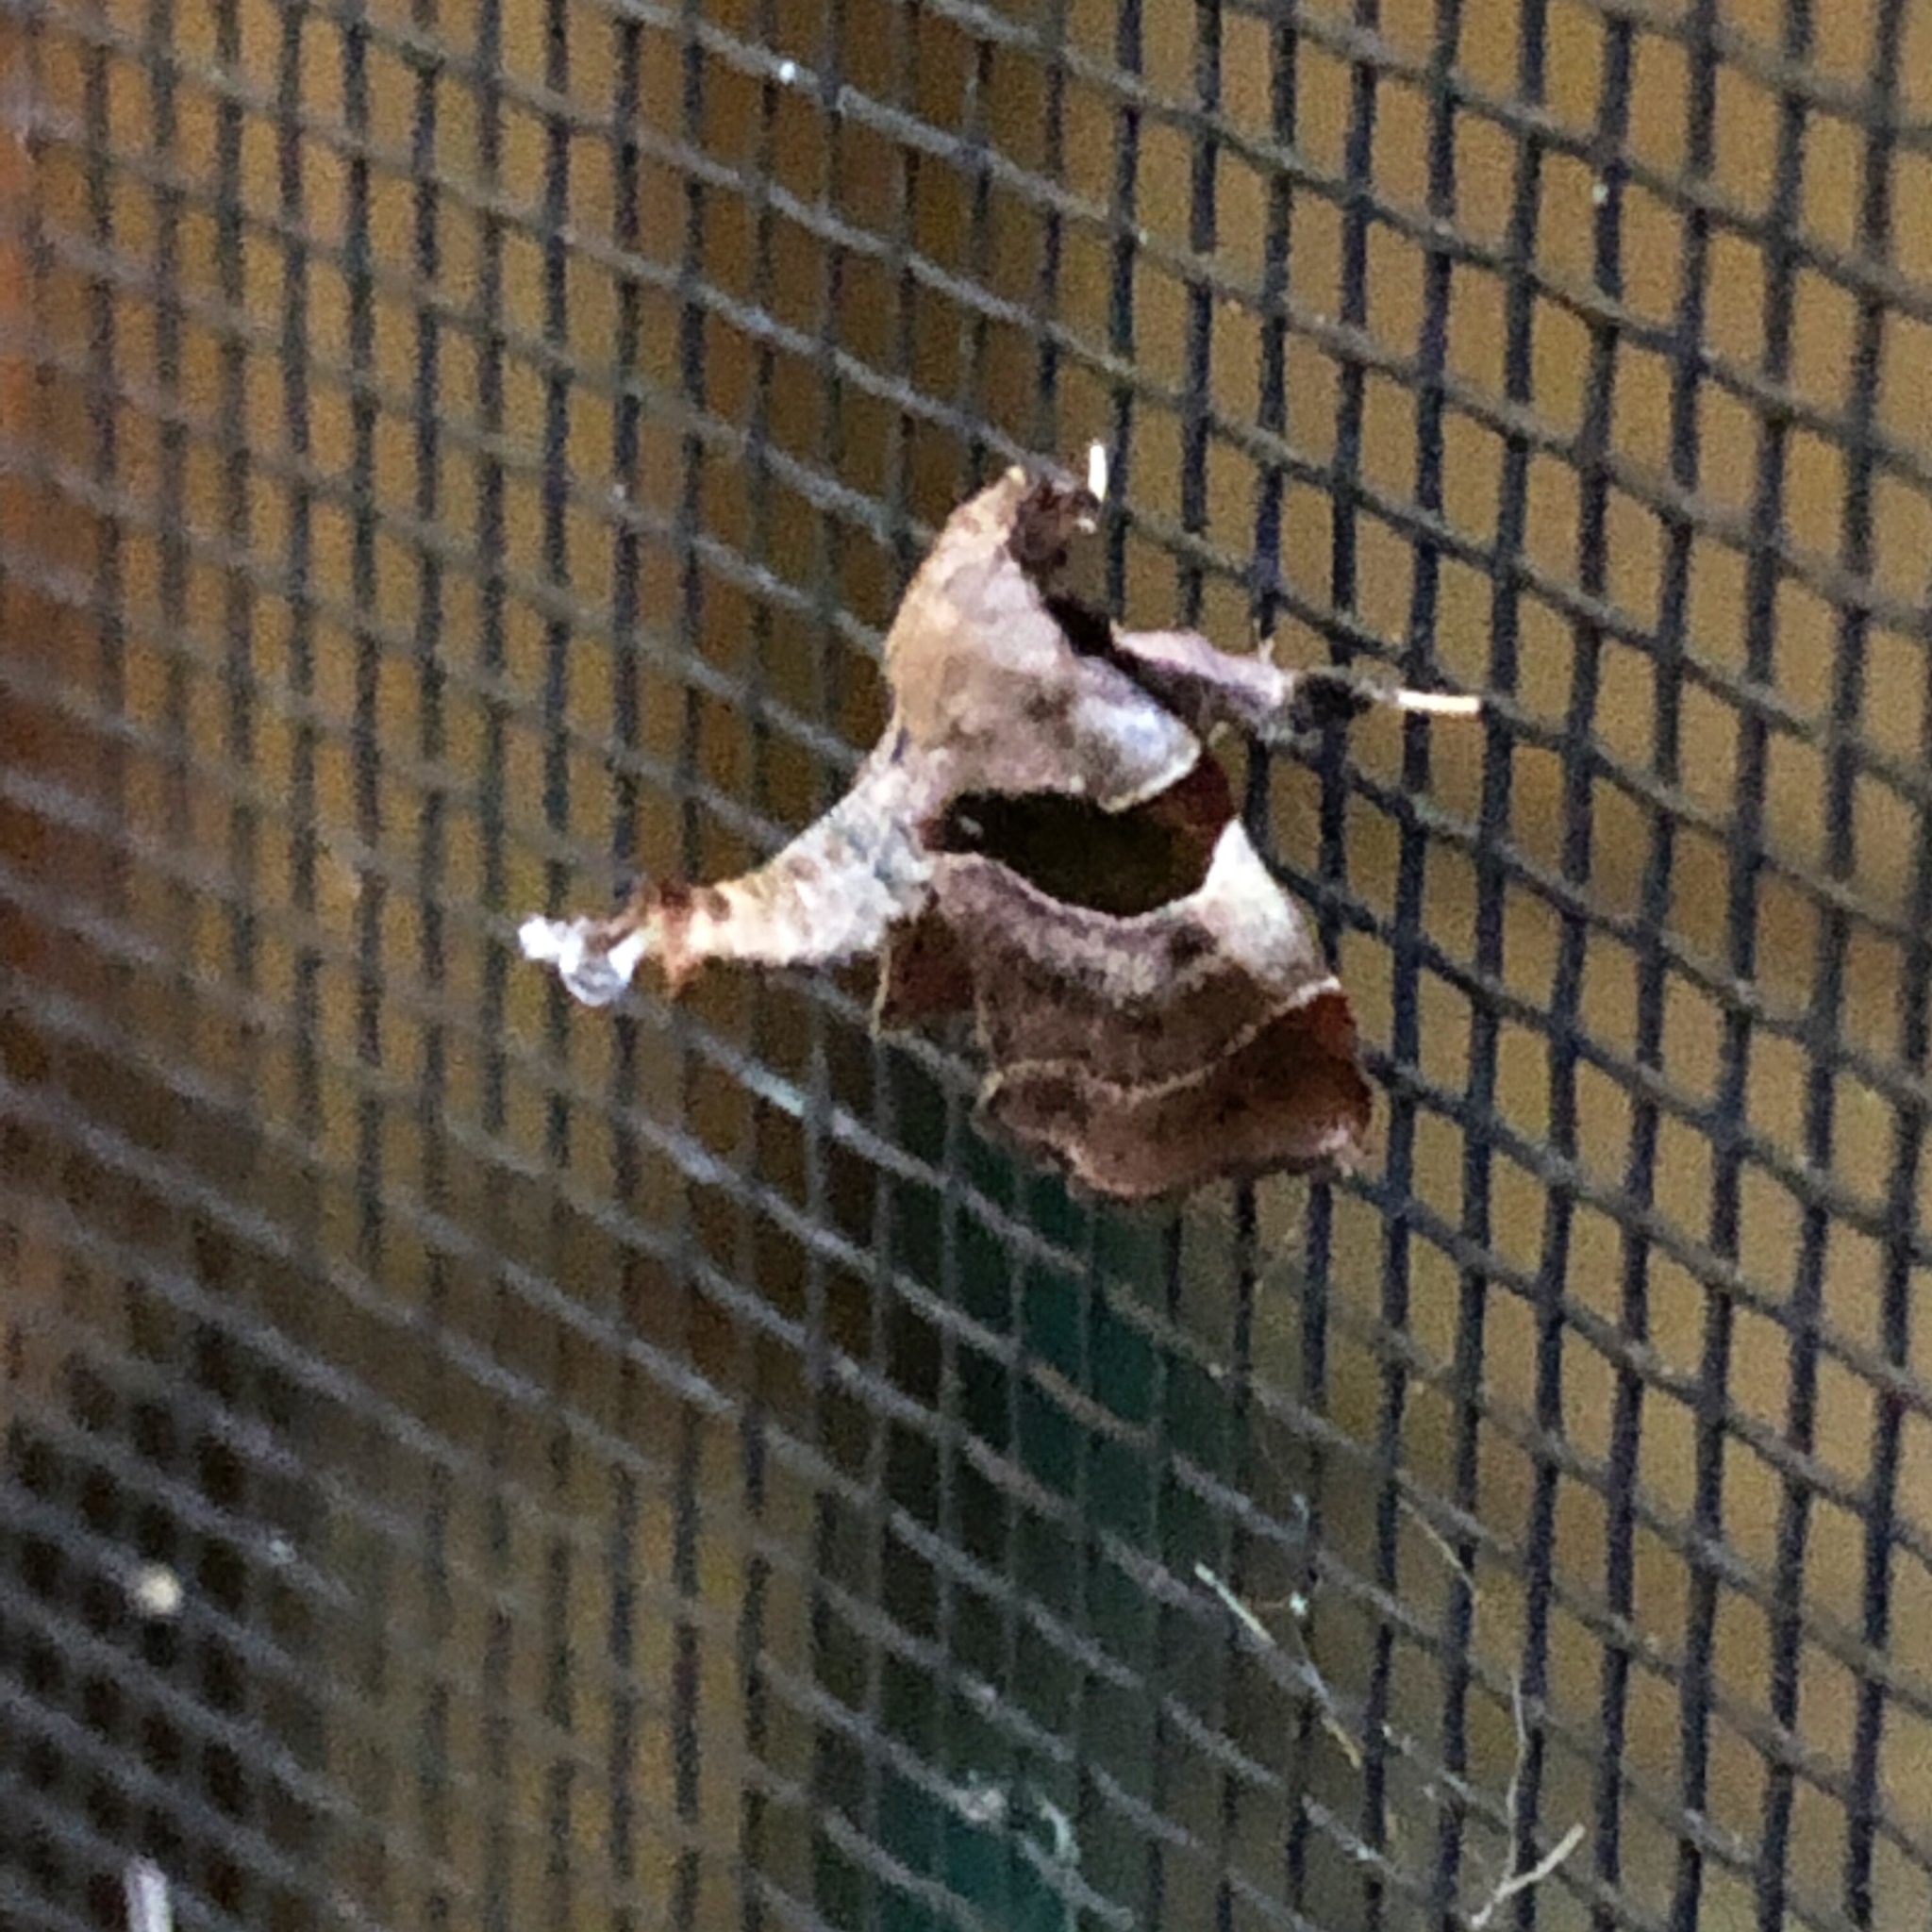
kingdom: Animalia
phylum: Arthropoda
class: Insecta
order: Lepidoptera
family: Pyralidae
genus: Tosale
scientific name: Tosale oviplagalis
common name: Dimorphic tosale moth
